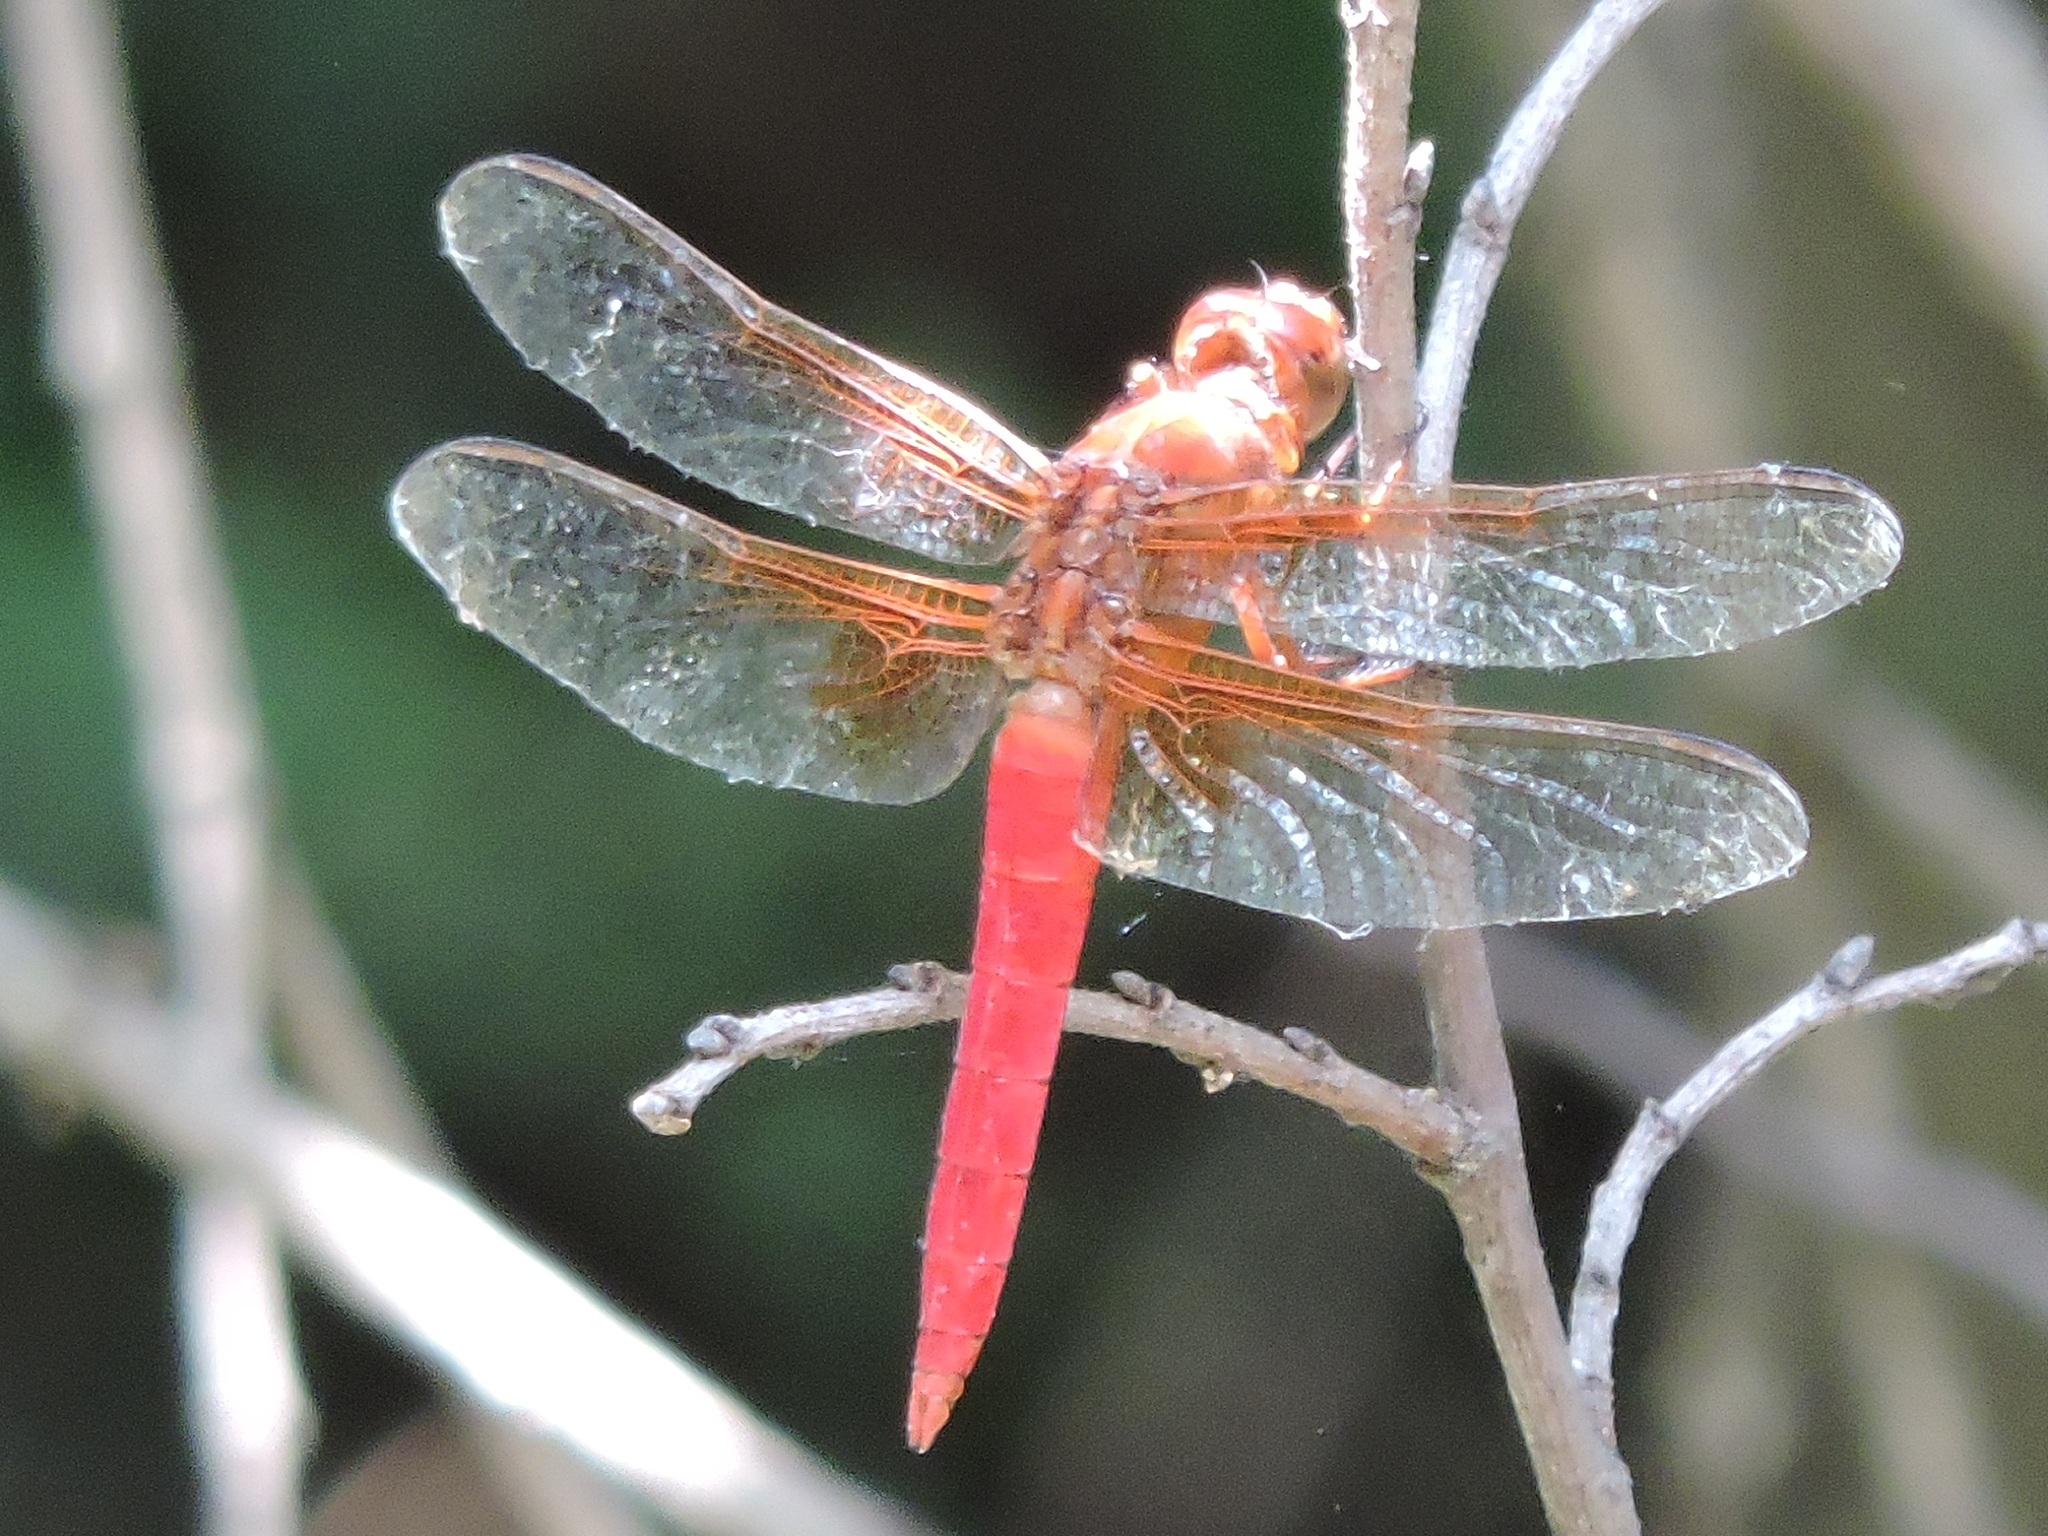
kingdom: Animalia
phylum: Arthropoda
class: Insecta
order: Odonata
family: Libellulidae
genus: Libellula
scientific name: Libellula croceipennis
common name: Neon skimmer
